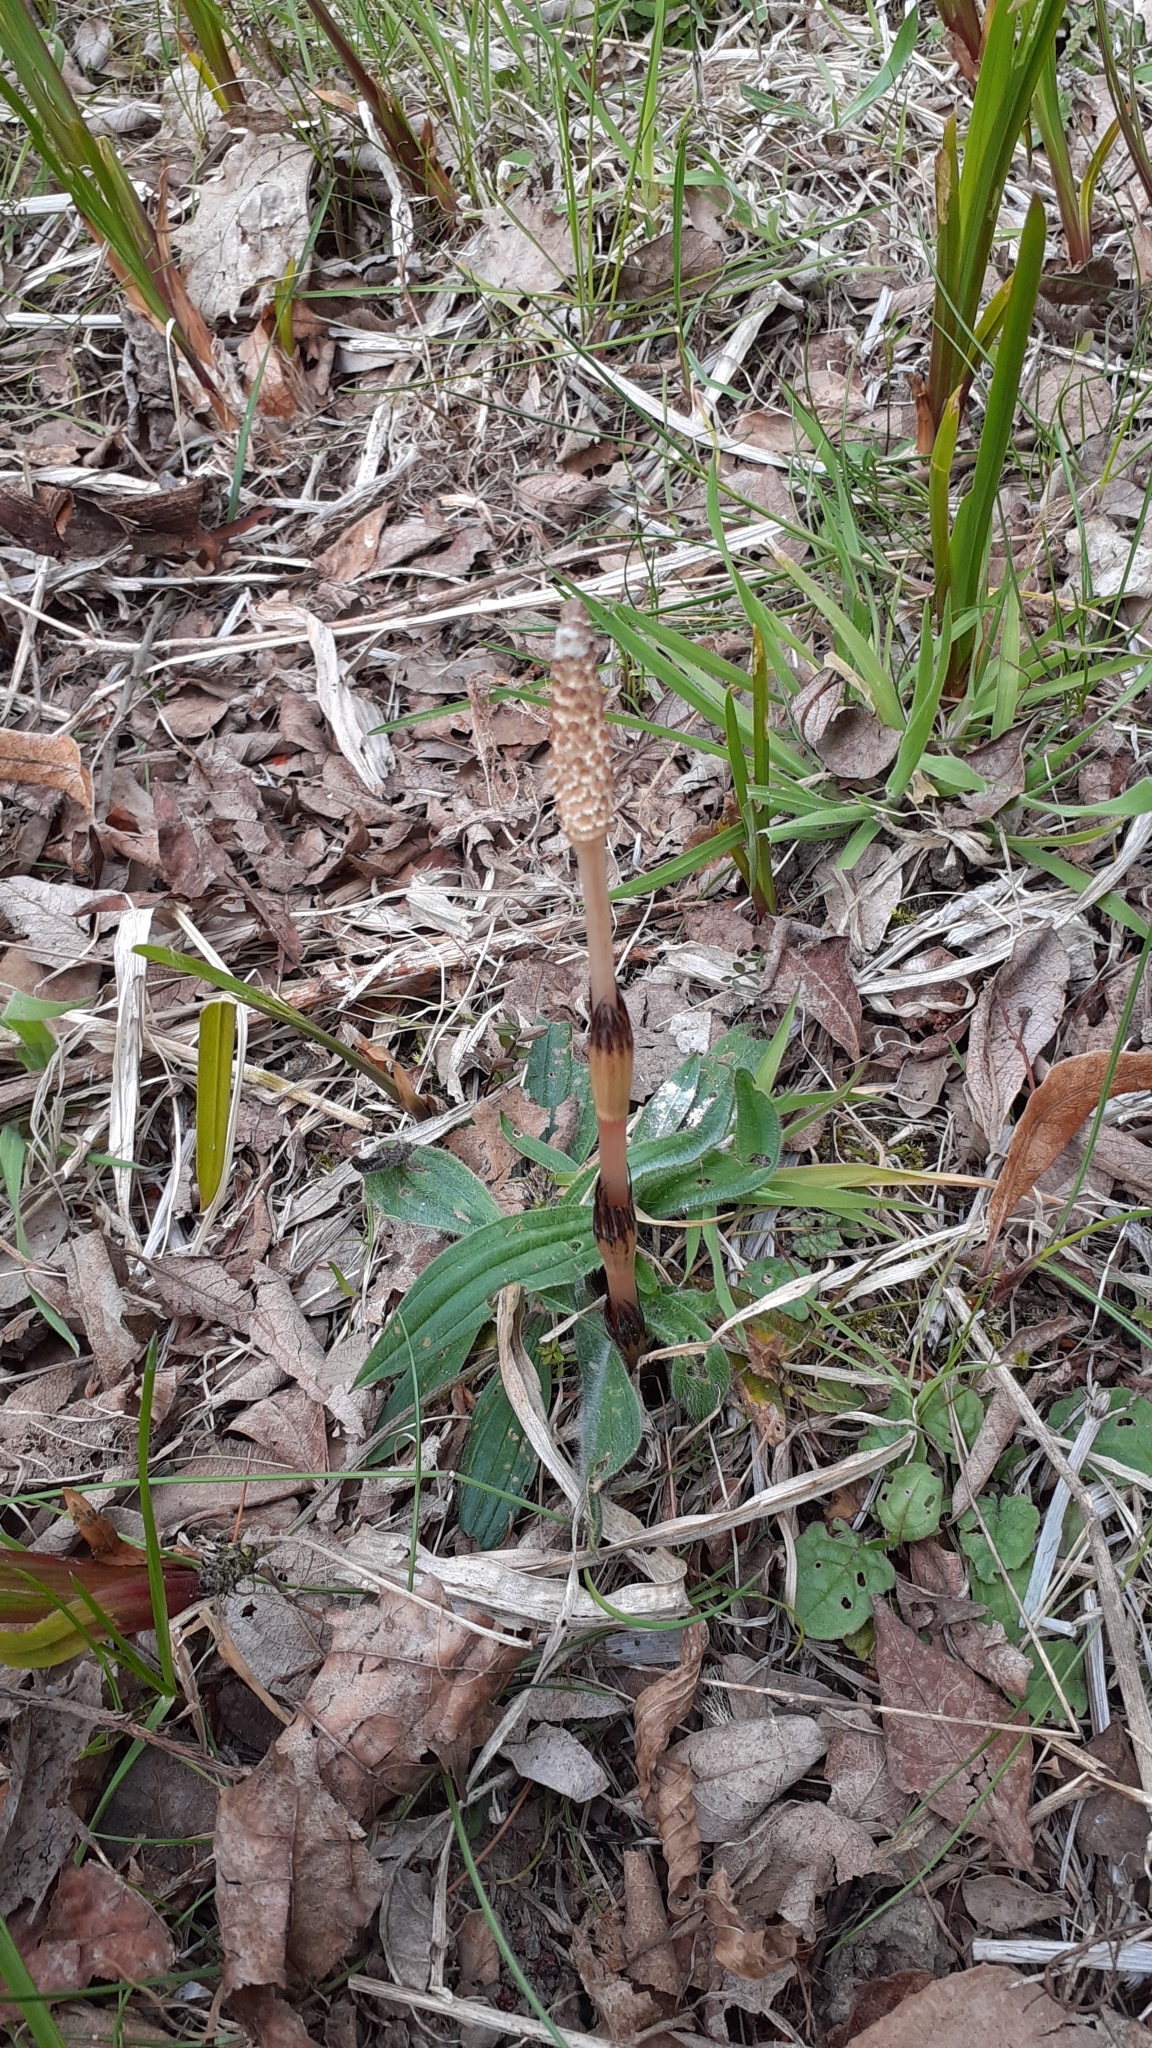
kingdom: Plantae
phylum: Tracheophyta
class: Polypodiopsida
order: Equisetales
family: Equisetaceae
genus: Equisetum
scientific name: Equisetum arvense
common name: Field horsetail
